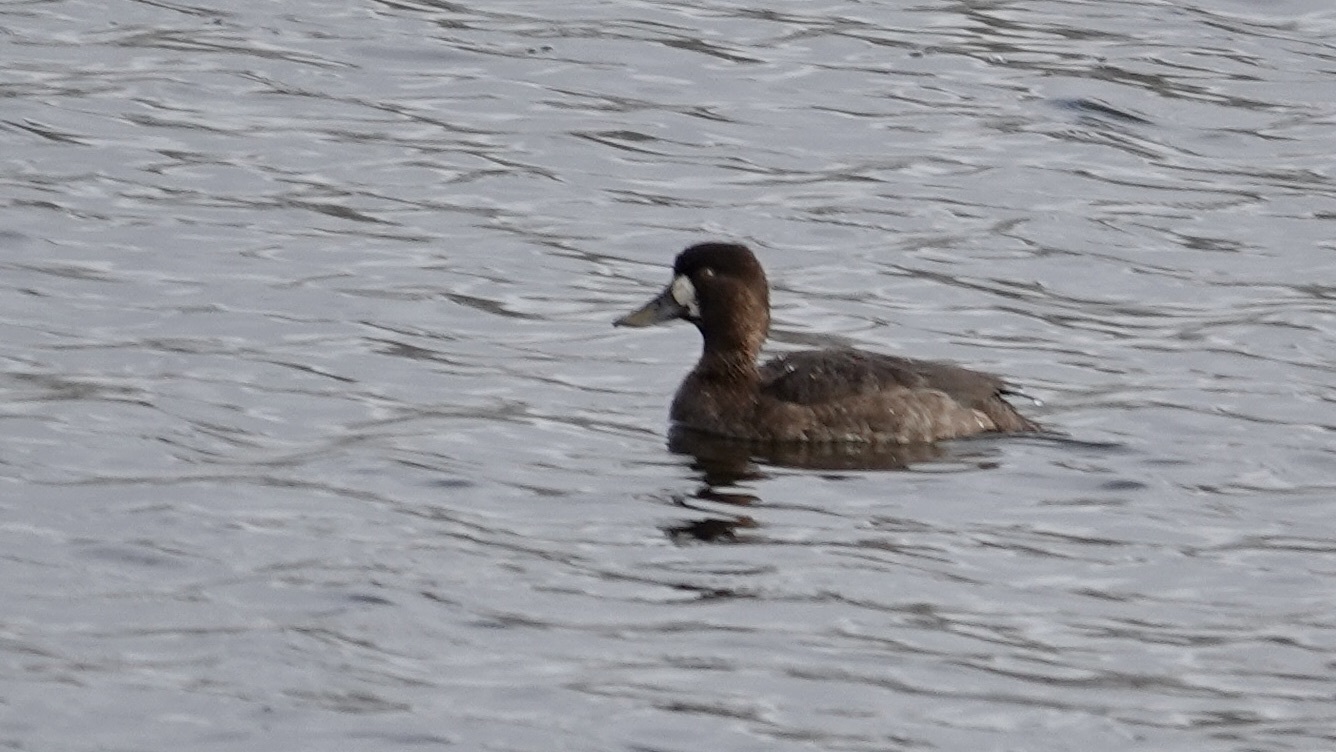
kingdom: Animalia
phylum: Chordata
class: Aves
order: Anseriformes
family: Anatidae
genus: Aythya
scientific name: Aythya affinis
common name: Lesser scaup
